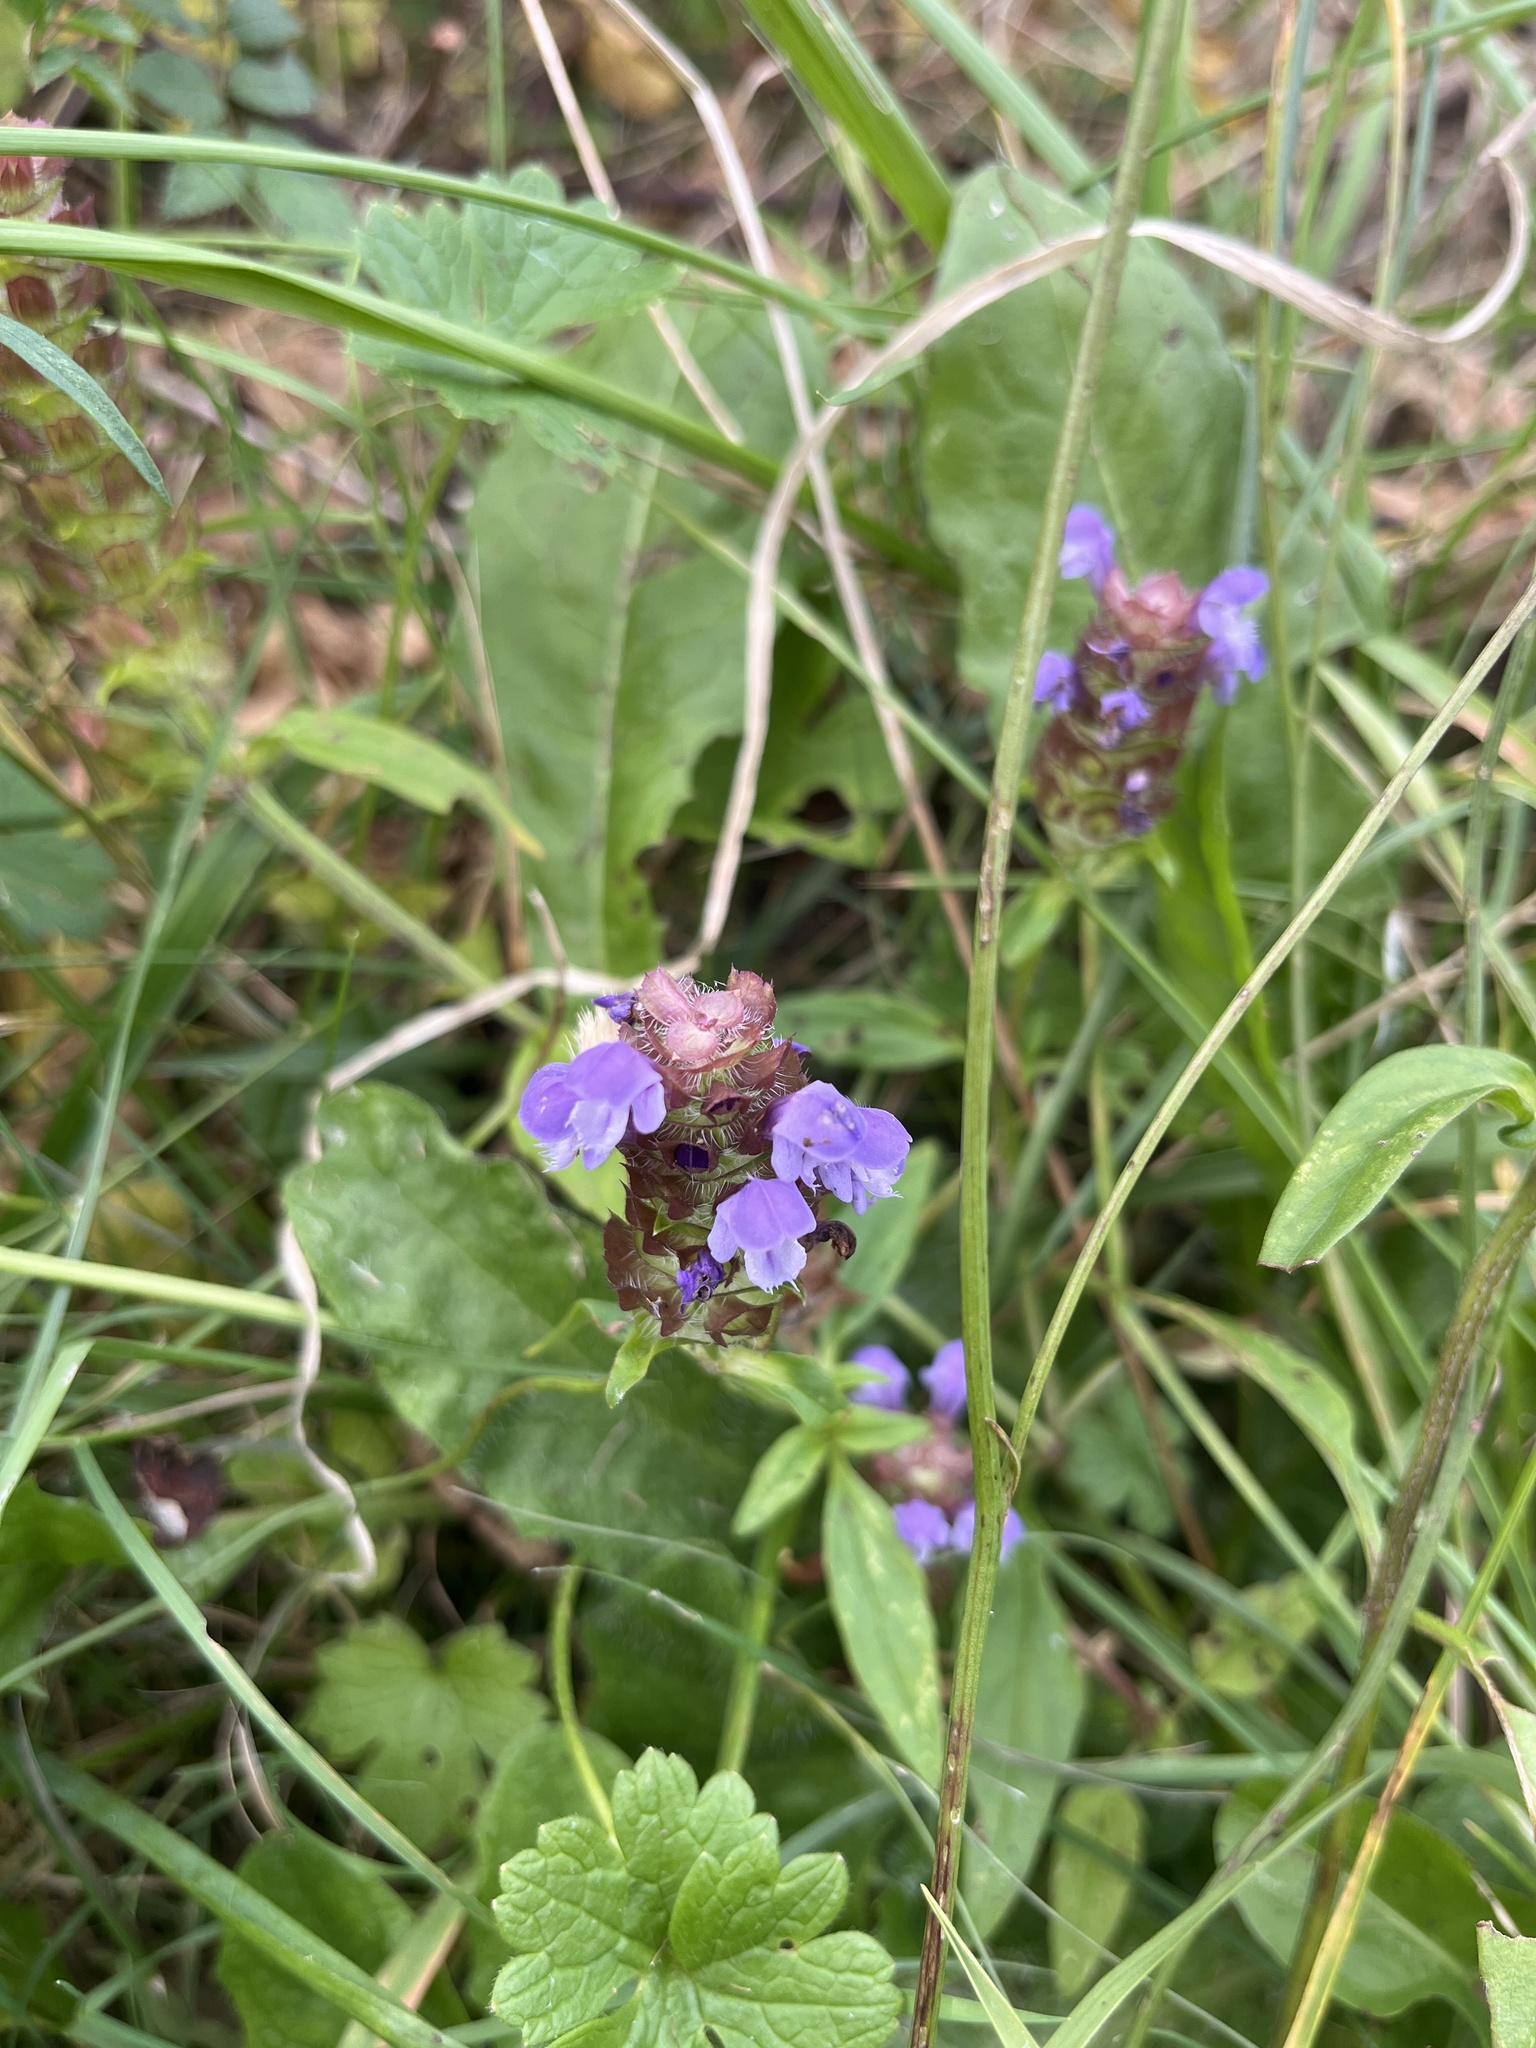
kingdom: Plantae
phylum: Tracheophyta
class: Magnoliopsida
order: Lamiales
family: Lamiaceae
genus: Prunella
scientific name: Prunella vulgaris
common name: Heal-all
